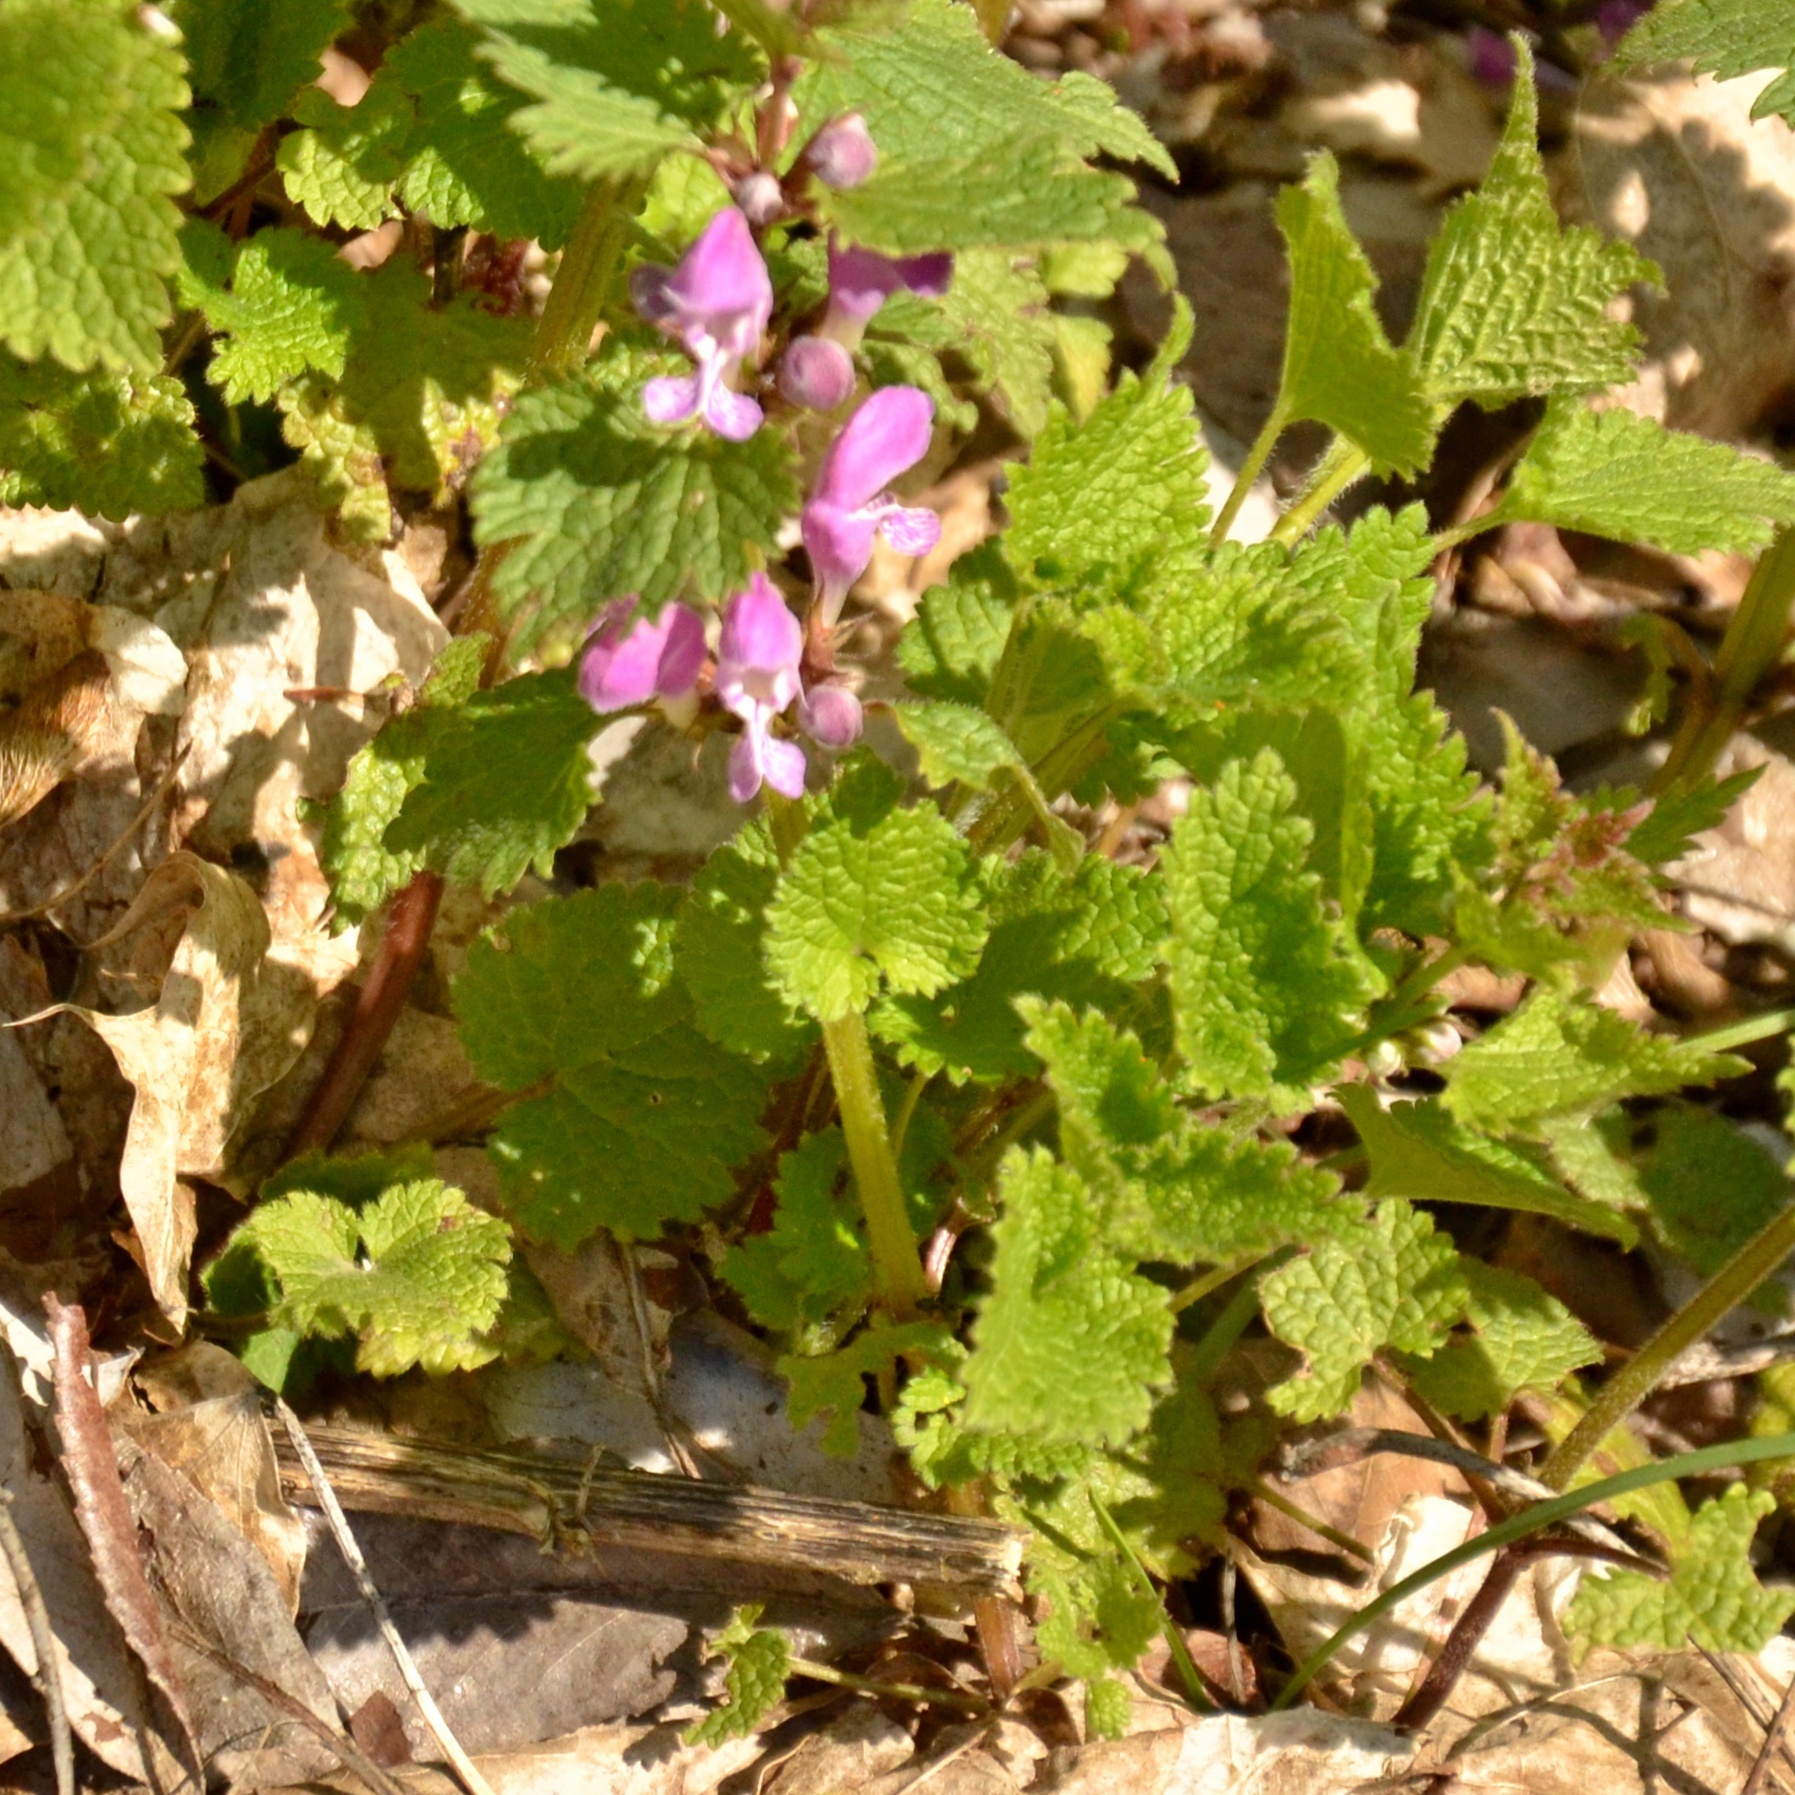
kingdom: Plantae
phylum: Tracheophyta
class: Magnoliopsida
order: Lamiales
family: Lamiaceae
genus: Lamium
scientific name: Lamium maculatum
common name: Spotted dead-nettle
